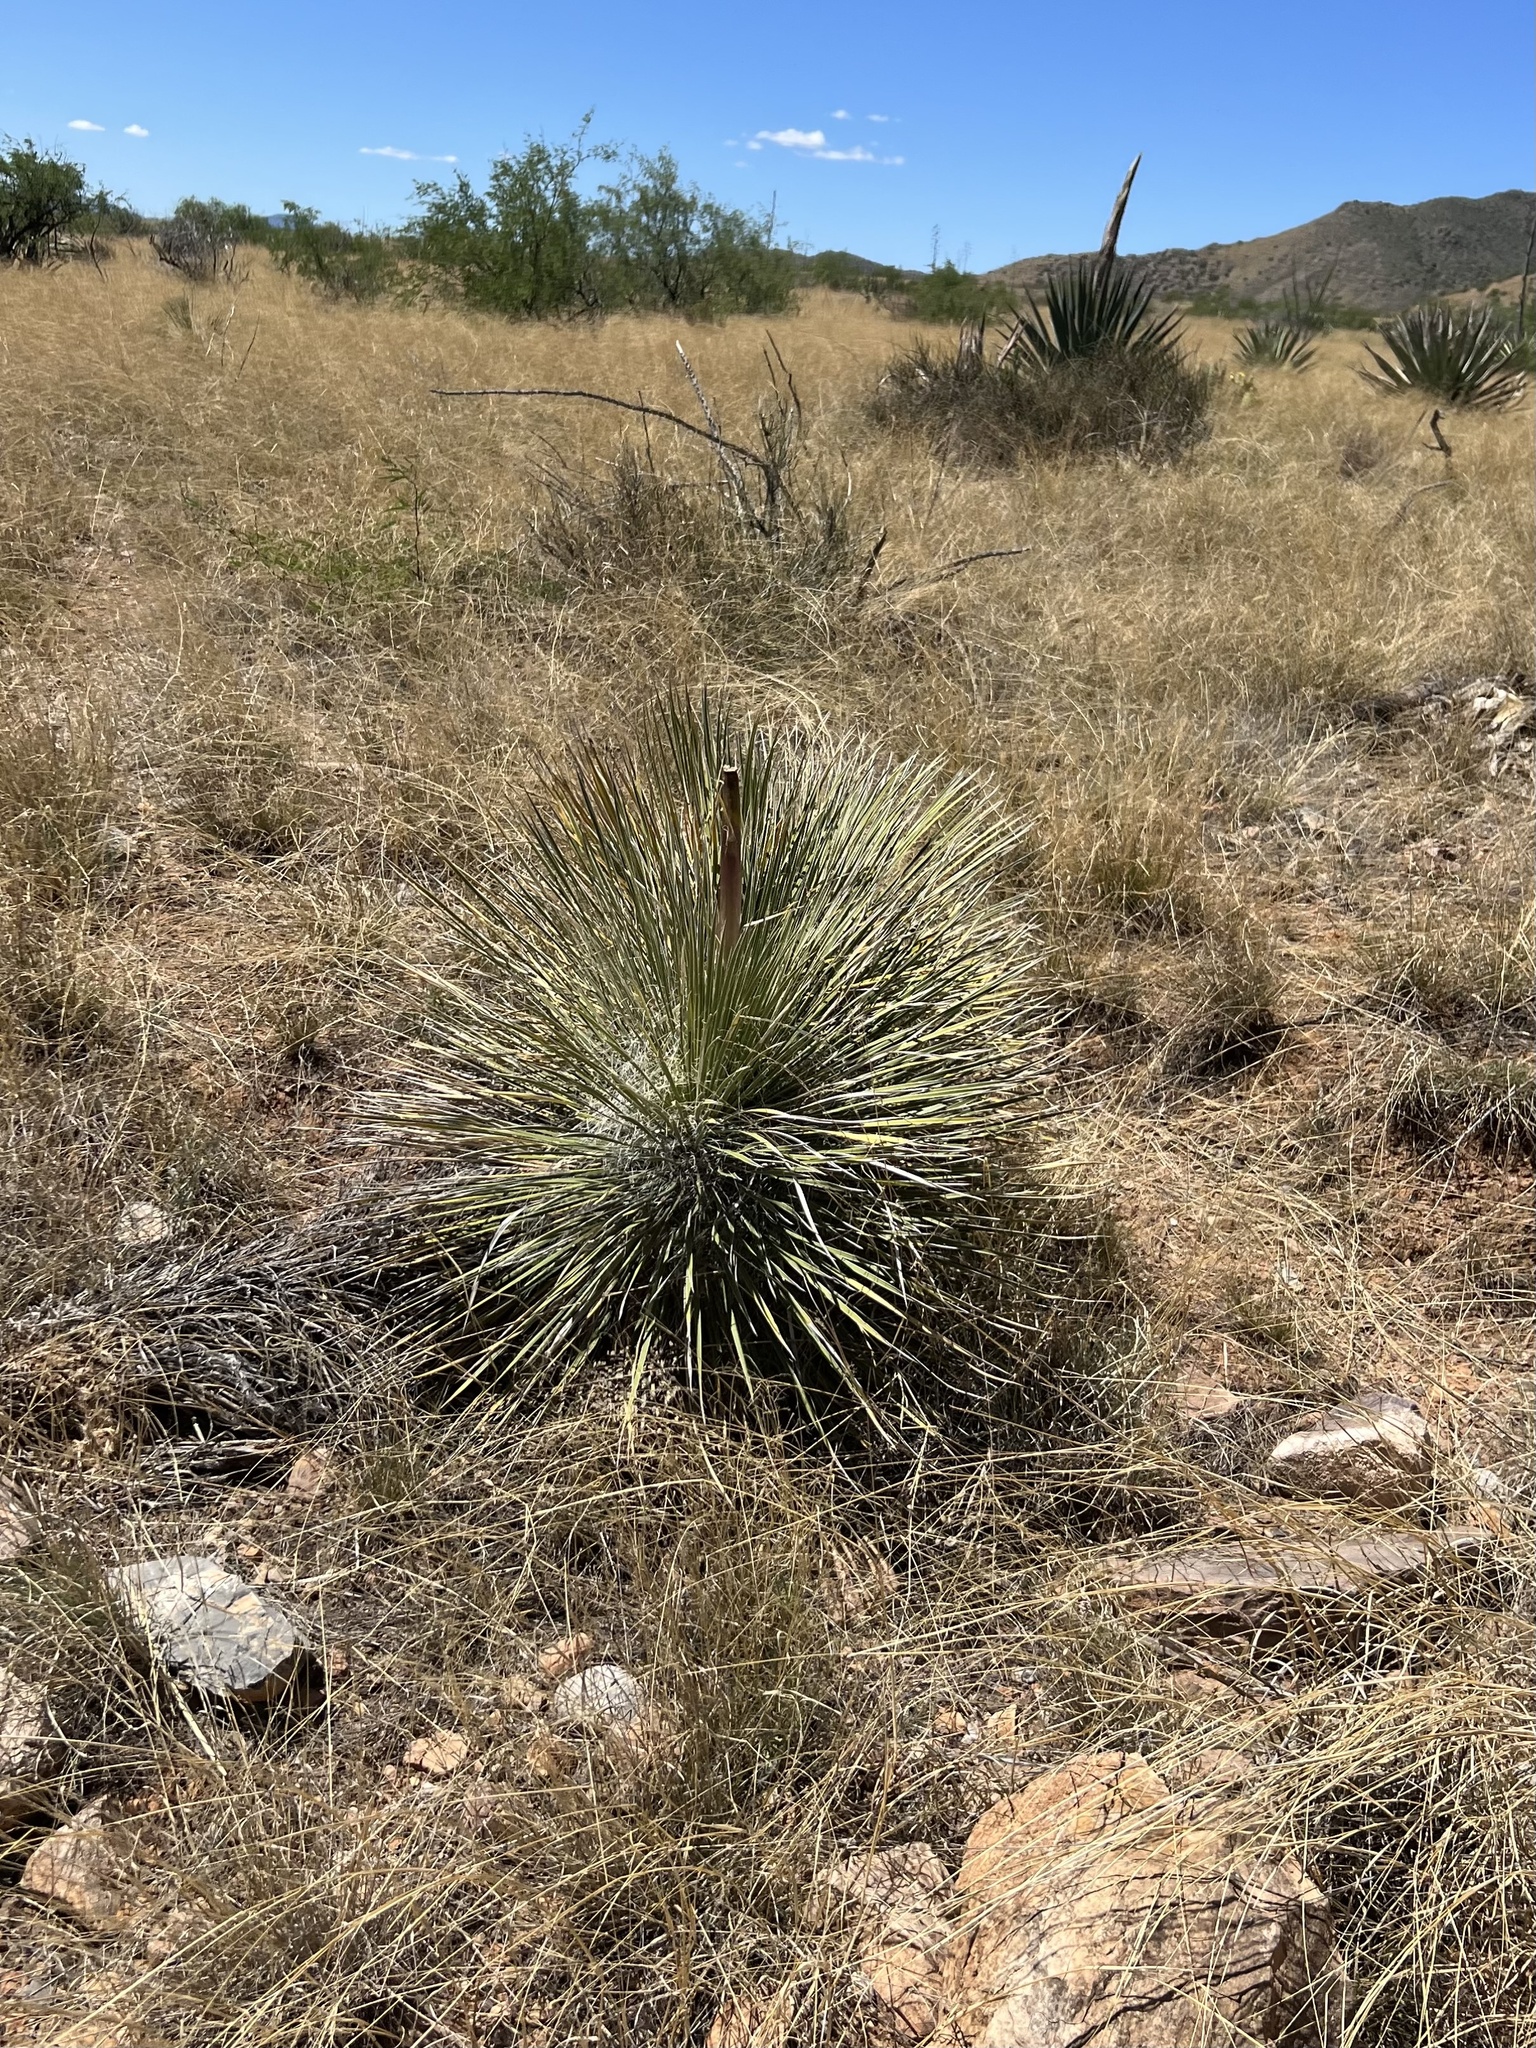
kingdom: Plantae
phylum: Tracheophyta
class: Liliopsida
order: Asparagales
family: Asparagaceae
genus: Yucca
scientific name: Yucca elata
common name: Palmella
